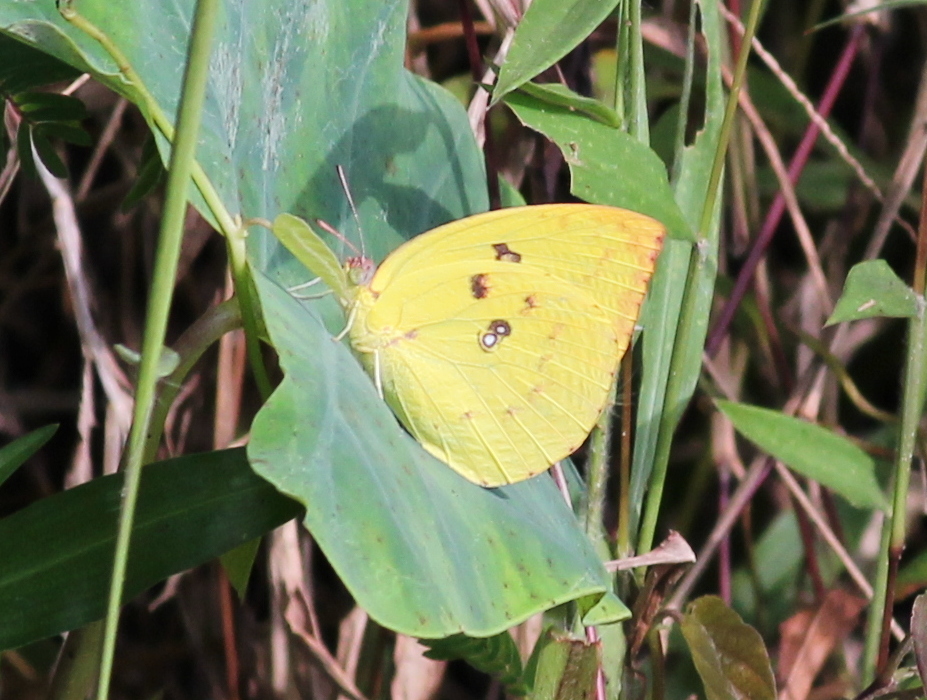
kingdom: Animalia
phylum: Arthropoda
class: Insecta
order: Lepidoptera
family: Pieridae
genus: Catopsilia
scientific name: Catopsilia pomona
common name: Common emigrant
